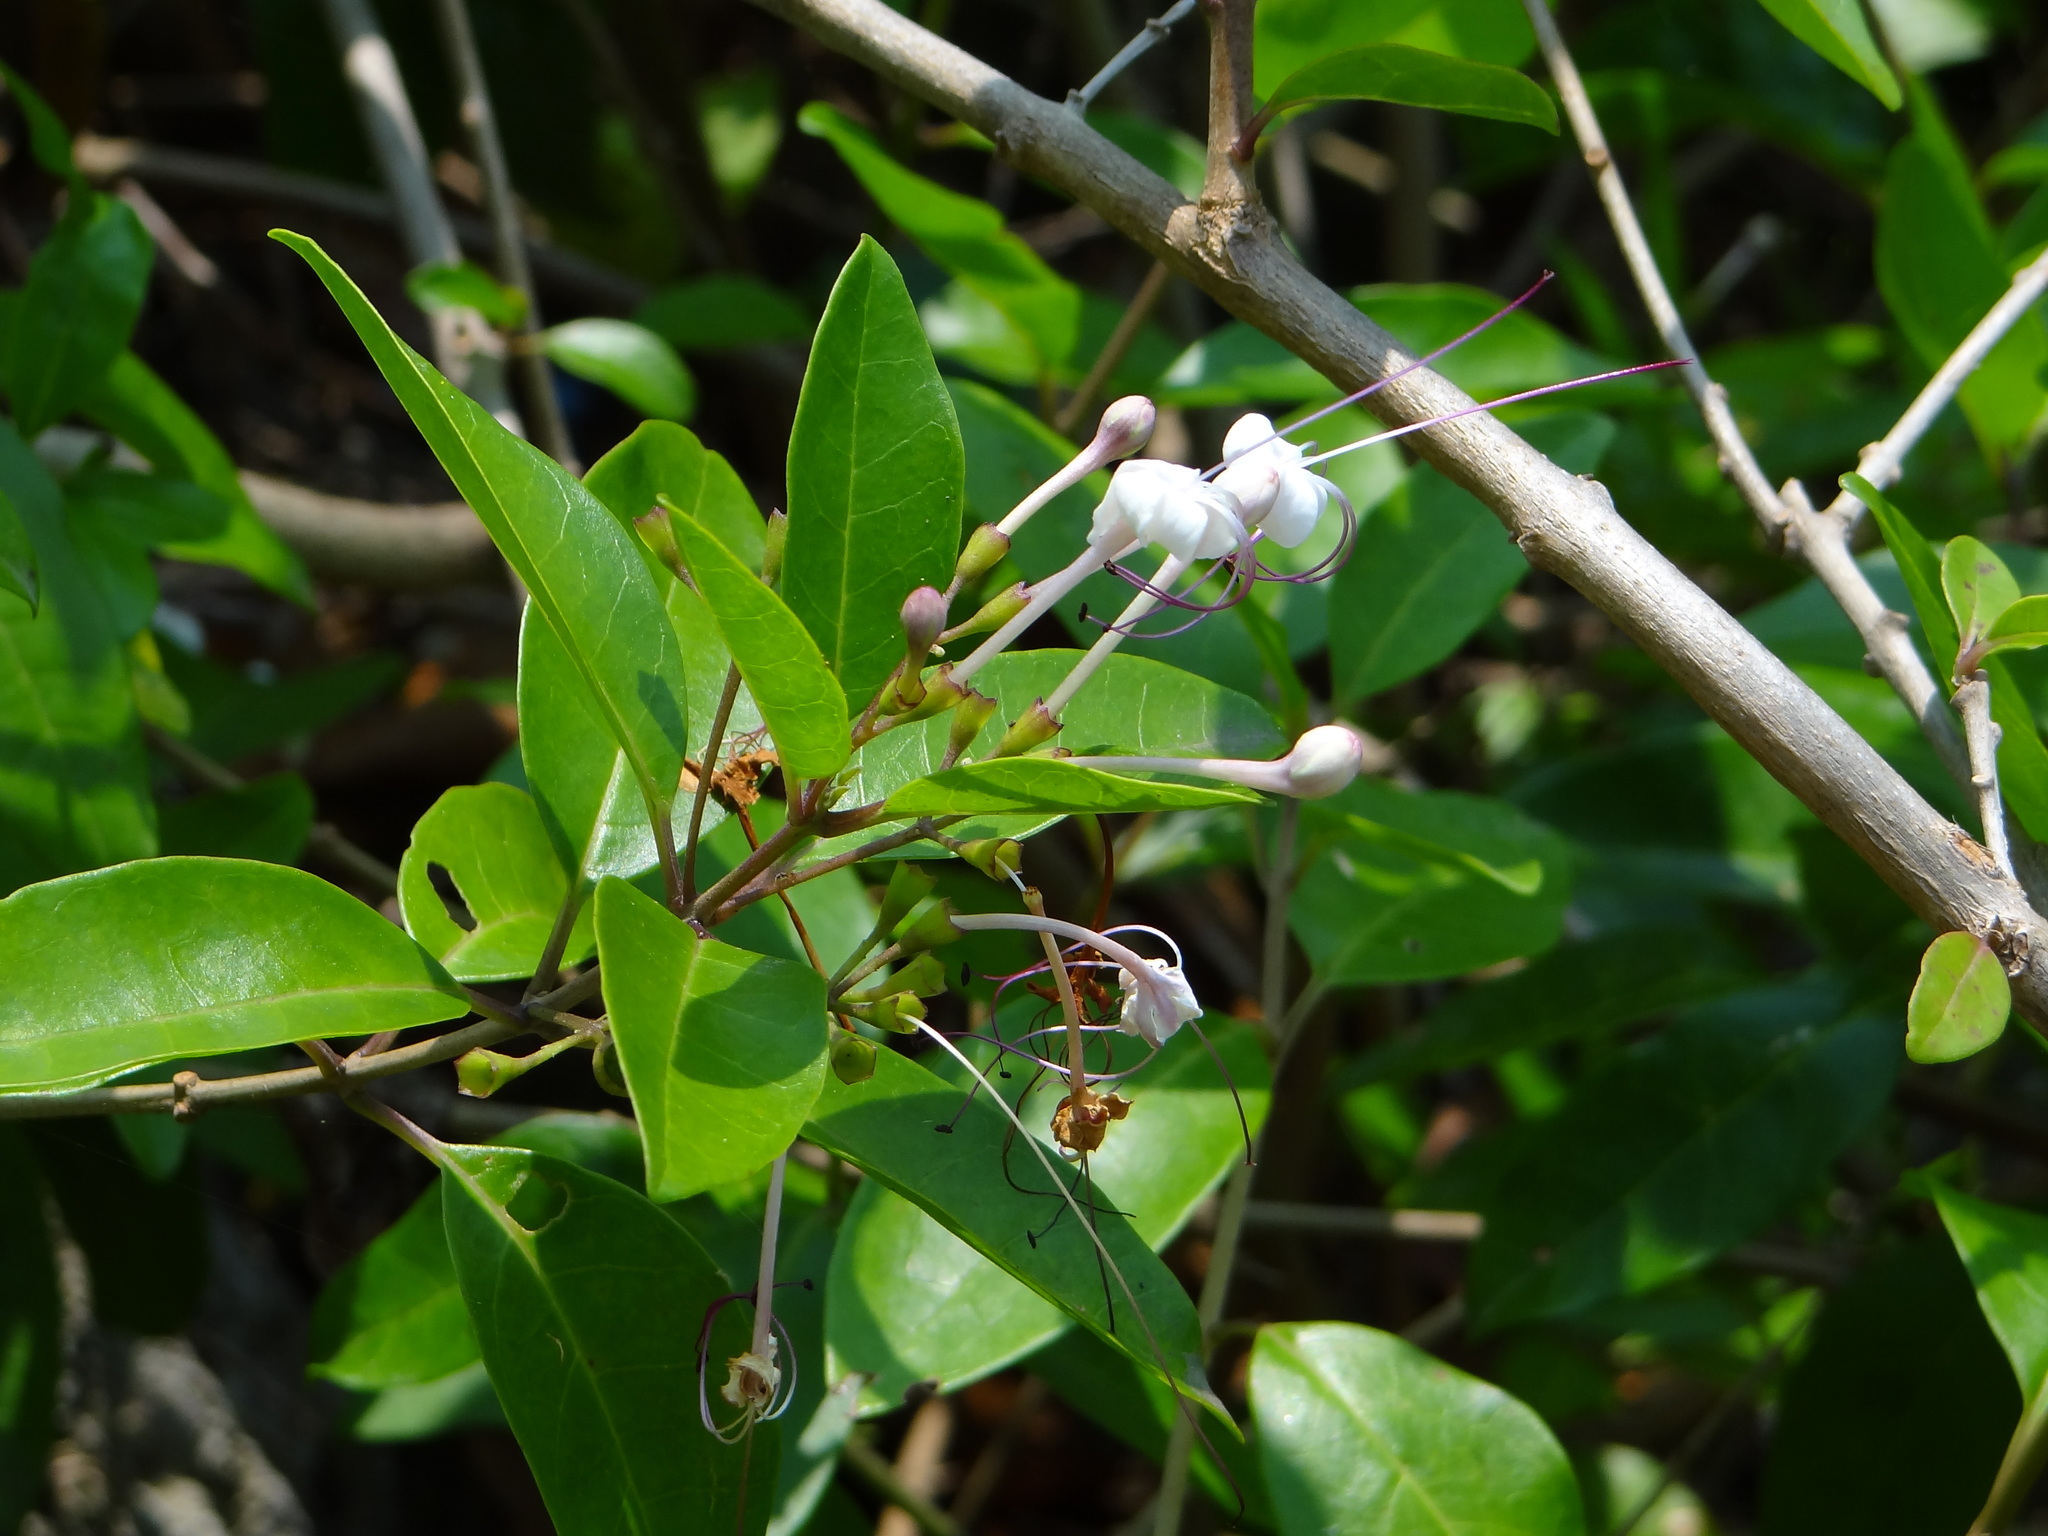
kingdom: Plantae
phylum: Tracheophyta
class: Magnoliopsida
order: Lamiales
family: Lamiaceae
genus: Volkameria
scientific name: Volkameria inermis
